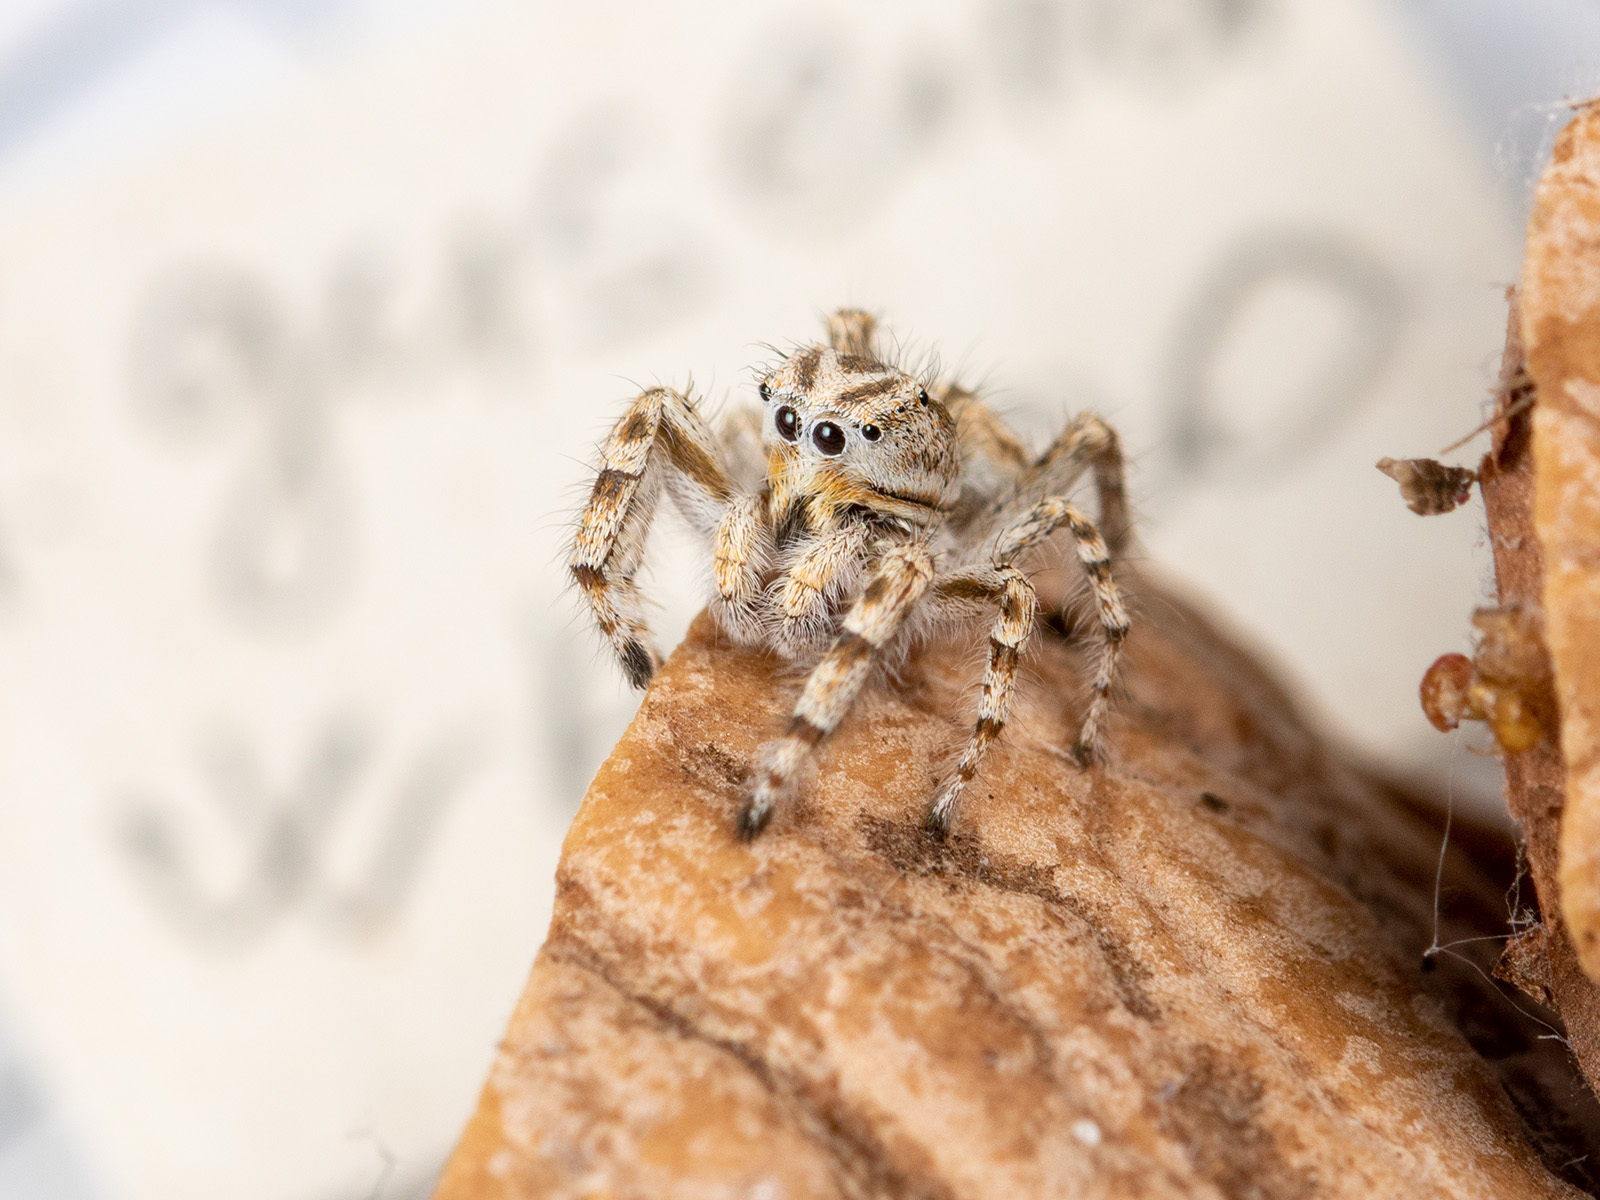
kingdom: Animalia
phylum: Arthropoda
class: Arachnida
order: Araneae
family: Salticidae
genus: Pseudomogrus
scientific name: Pseudomogrus guseinovi
